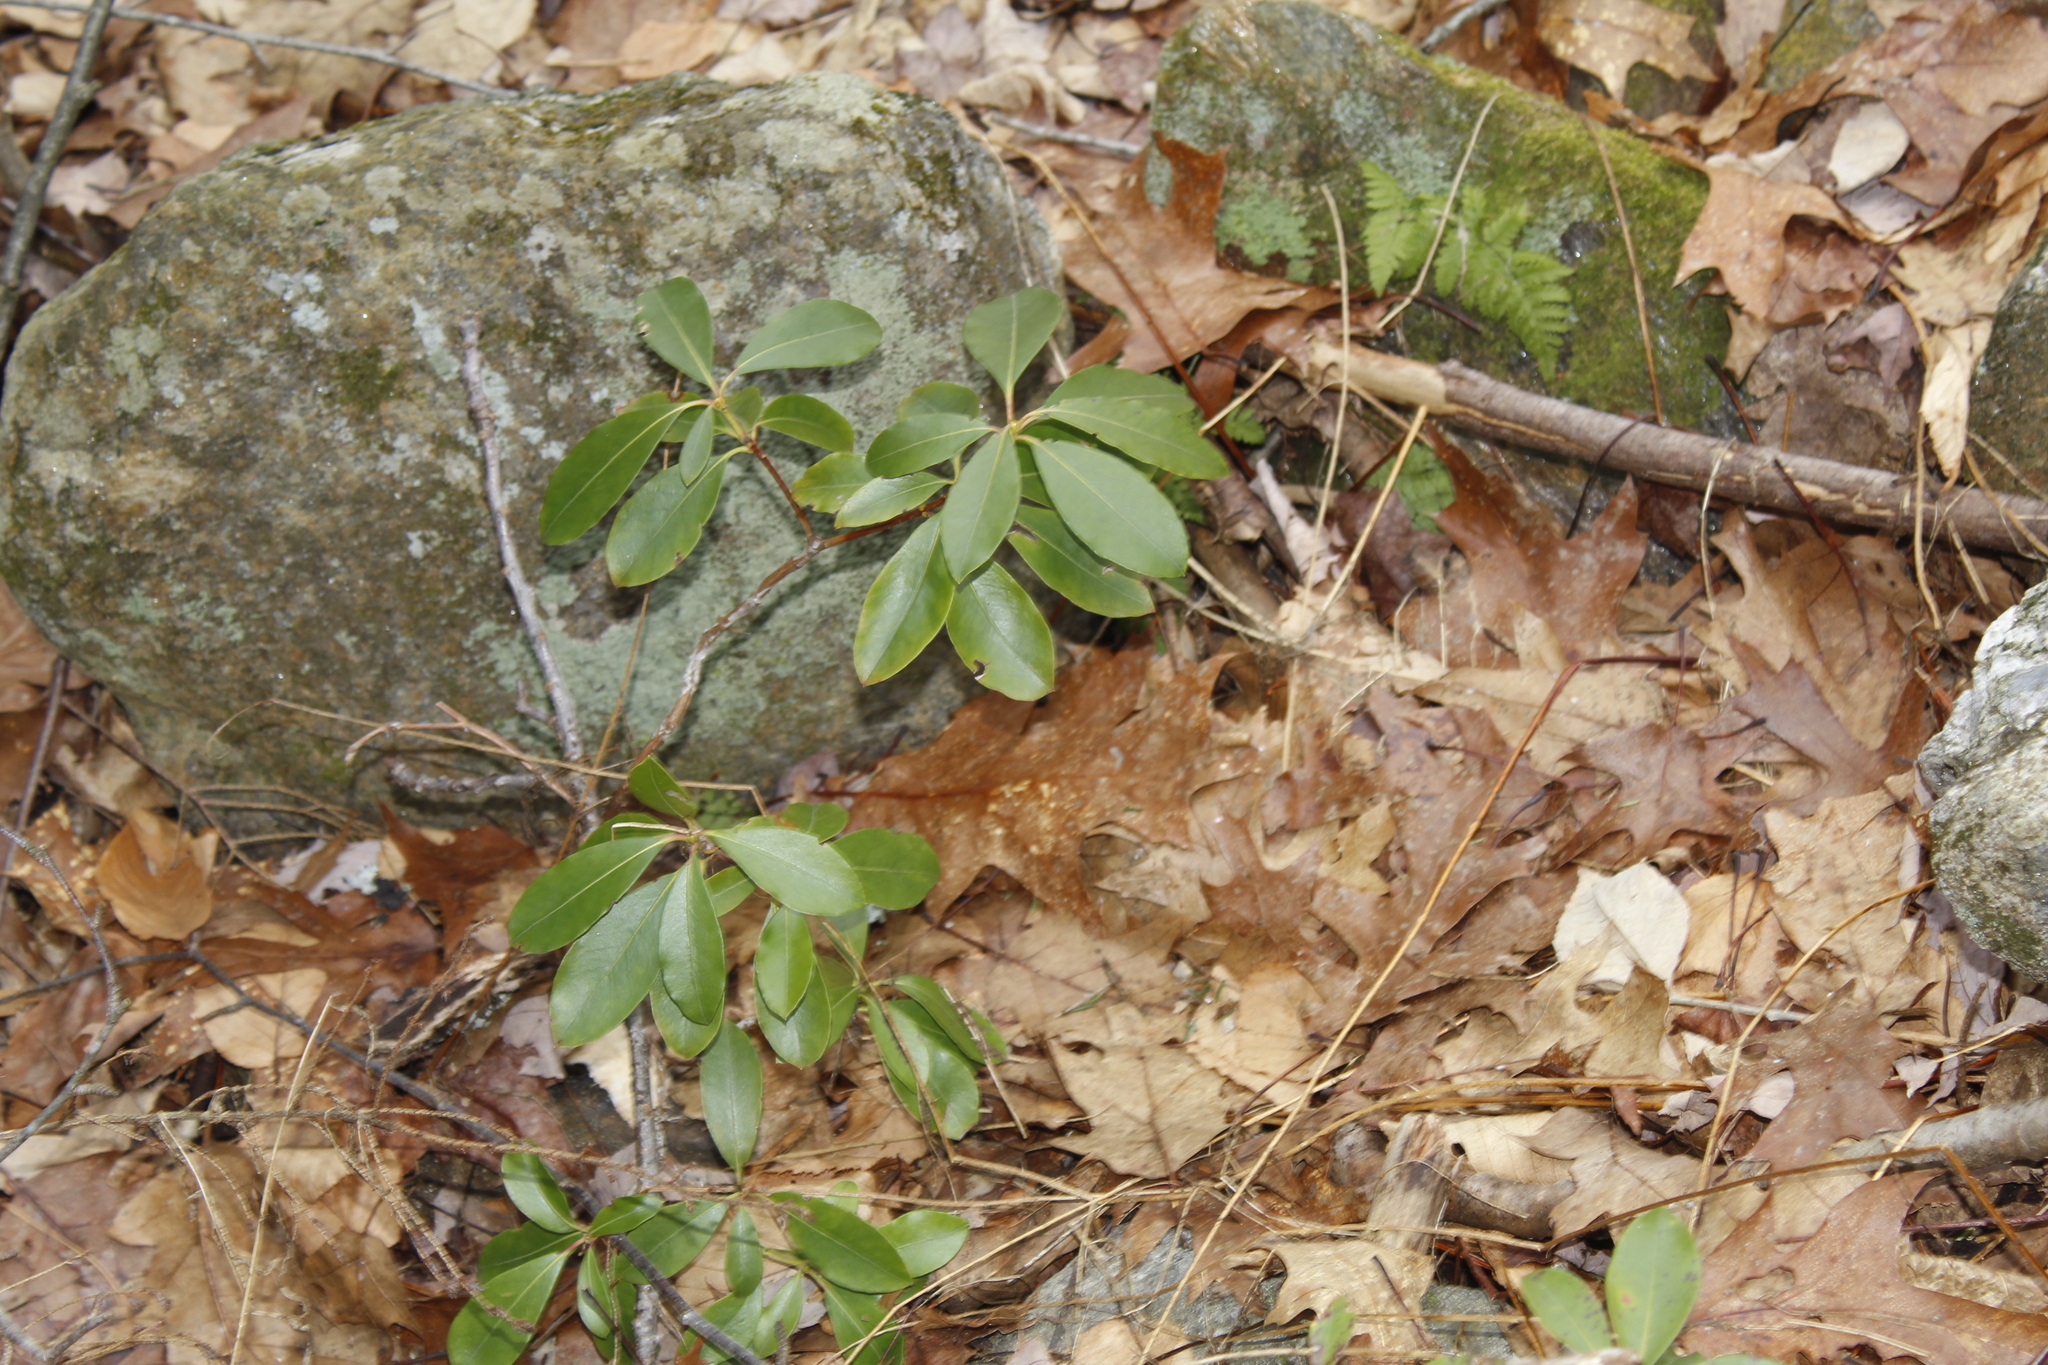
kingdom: Plantae
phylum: Tracheophyta
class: Magnoliopsida
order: Ericales
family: Ericaceae
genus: Kalmia
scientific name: Kalmia latifolia
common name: Mountain-laurel
